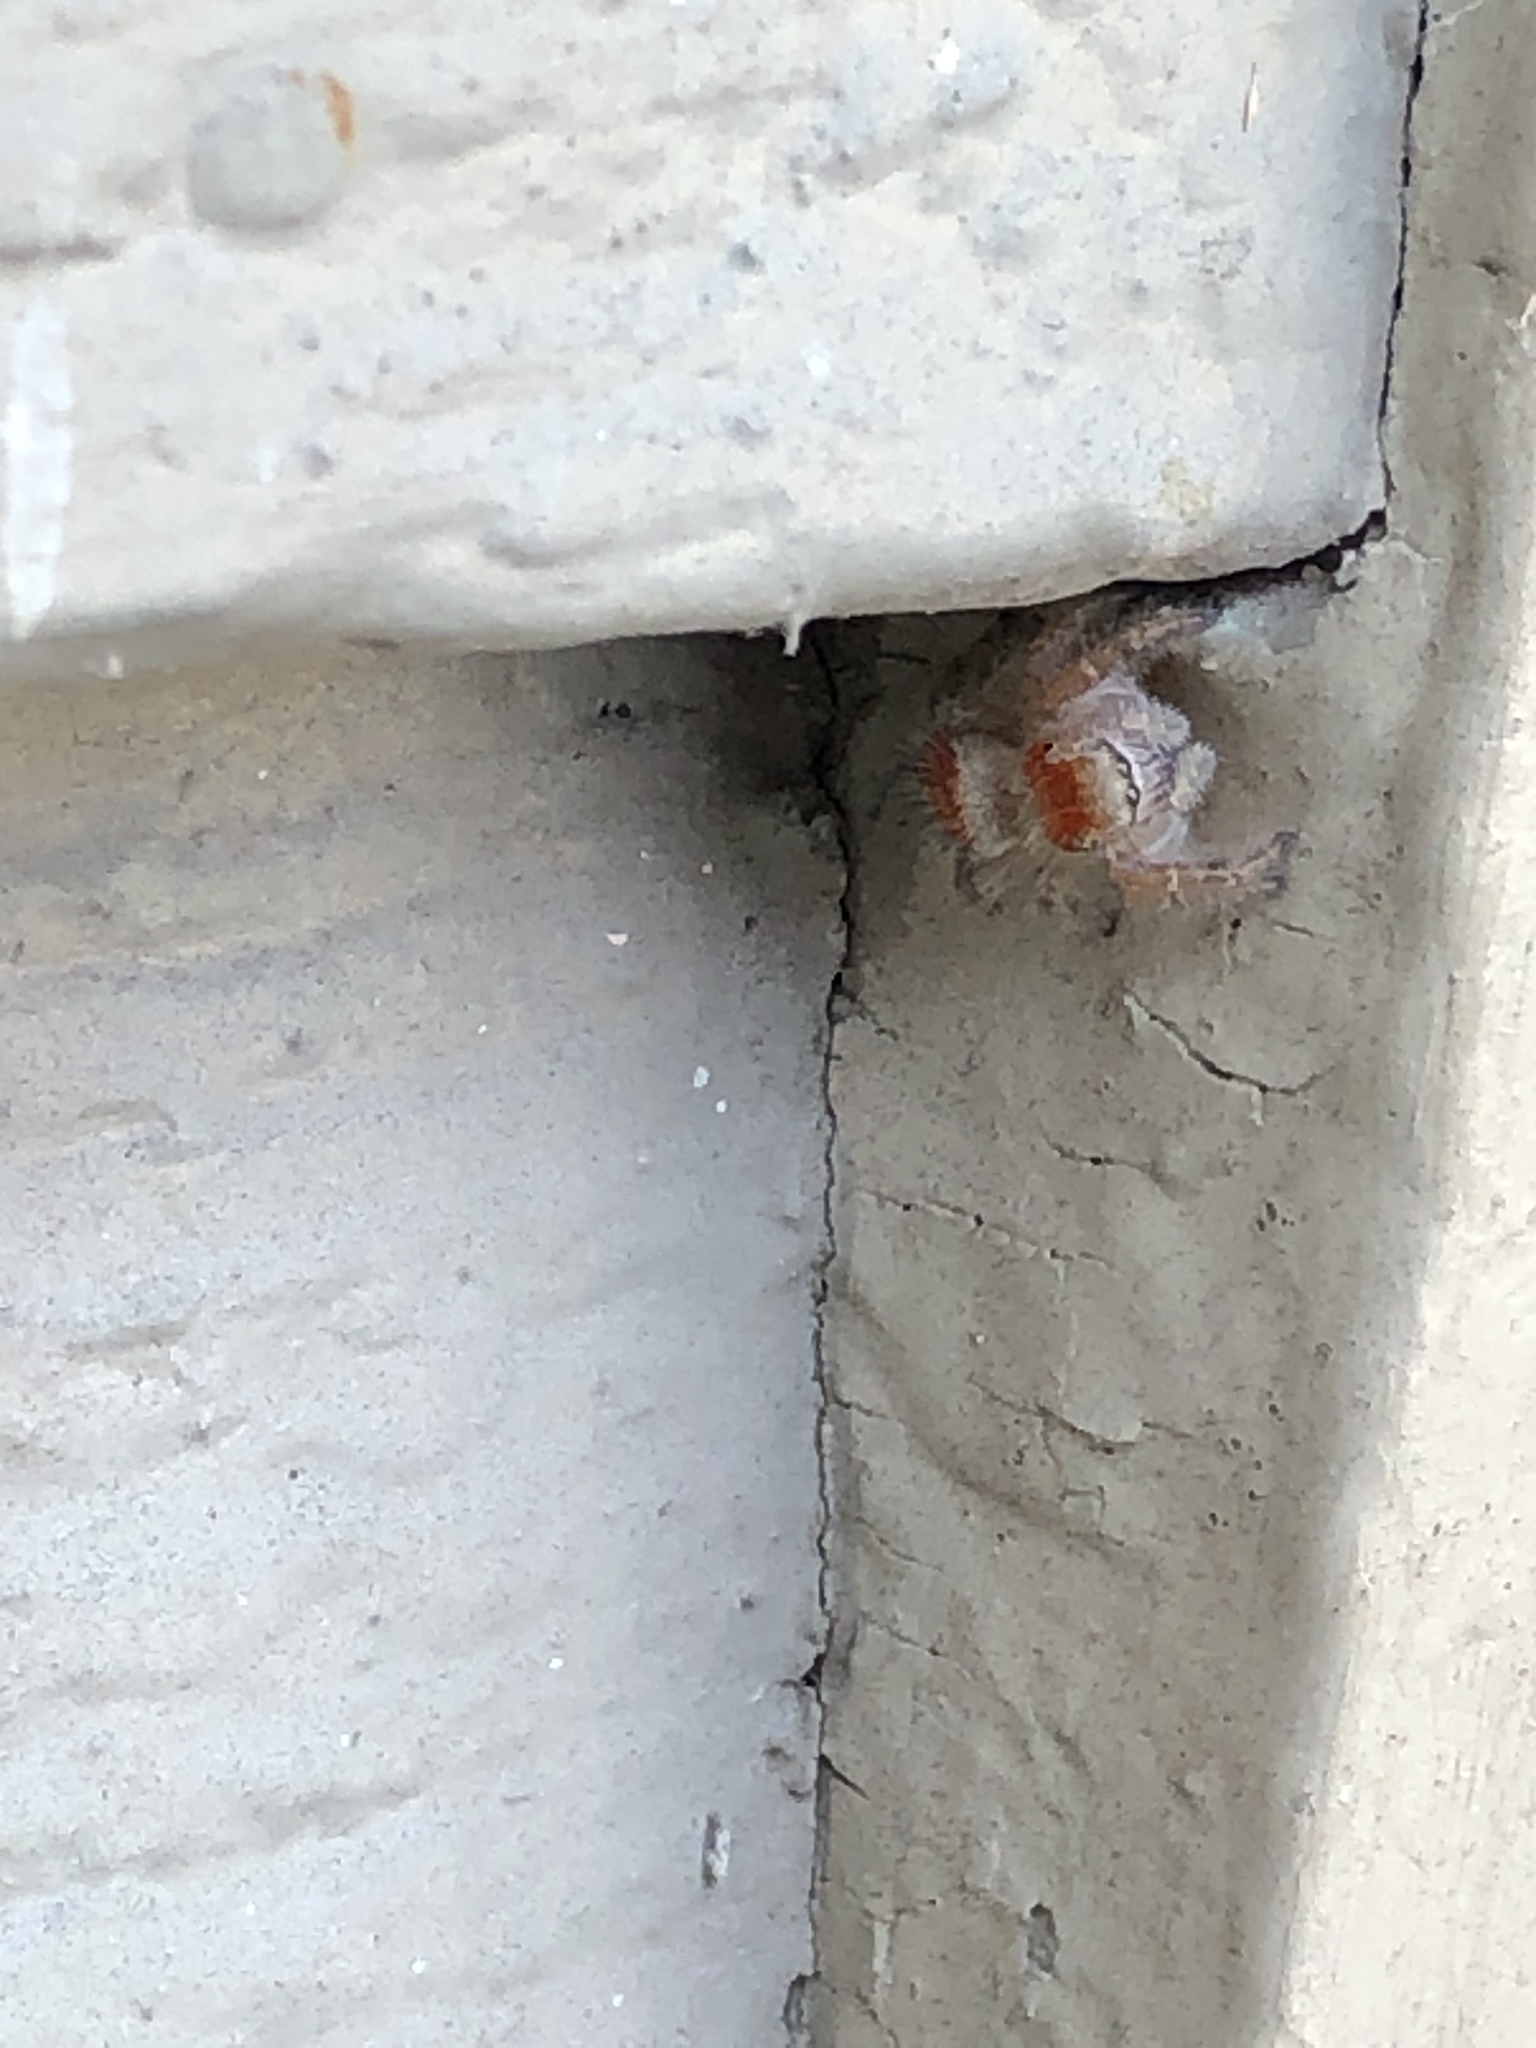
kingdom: Animalia
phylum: Arthropoda
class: Arachnida
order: Araneae
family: Salticidae
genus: Phidippus
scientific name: Phidippus cardinalis
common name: Cardinal jumper
